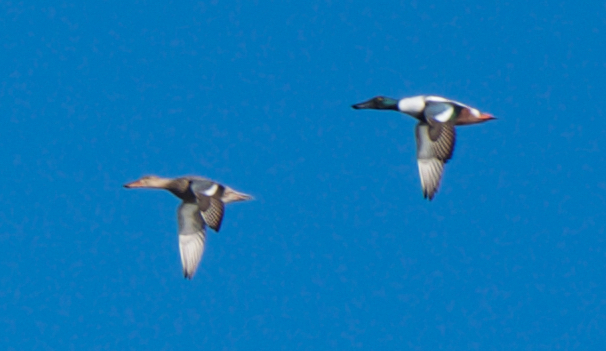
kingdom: Animalia
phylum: Chordata
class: Aves
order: Anseriformes
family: Anatidae
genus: Spatula
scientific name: Spatula clypeata
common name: Northern shoveler
